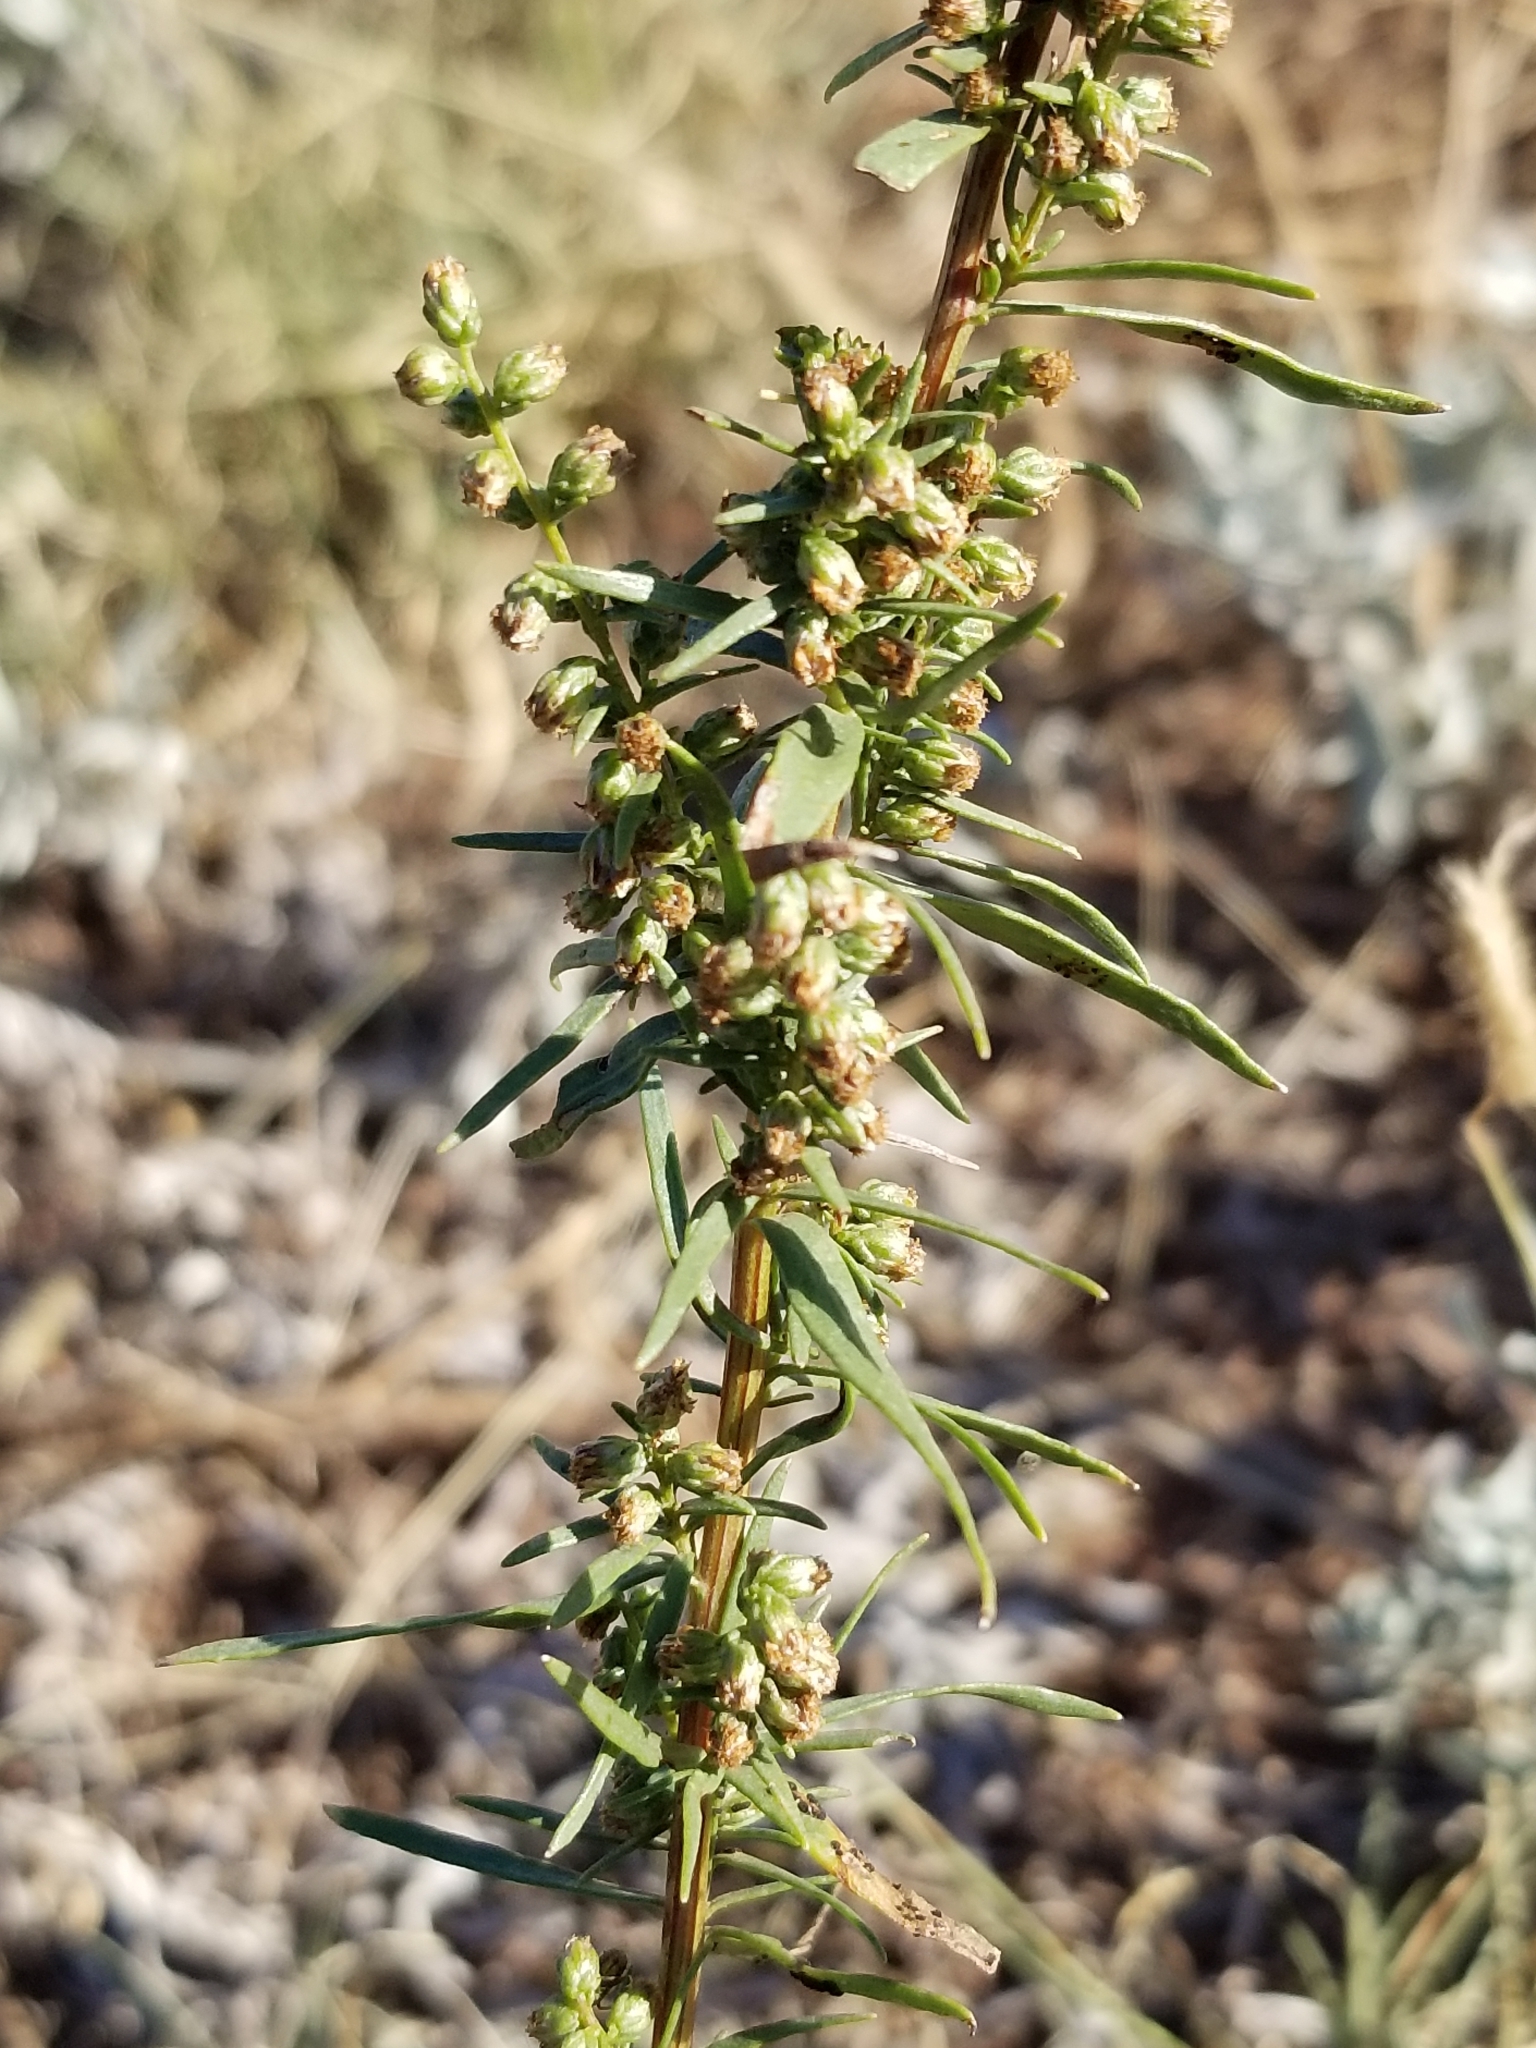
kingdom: Plantae
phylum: Tracheophyta
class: Magnoliopsida
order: Asterales
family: Asteraceae
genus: Artemisia
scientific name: Artemisia dracunculus
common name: Tarragon
